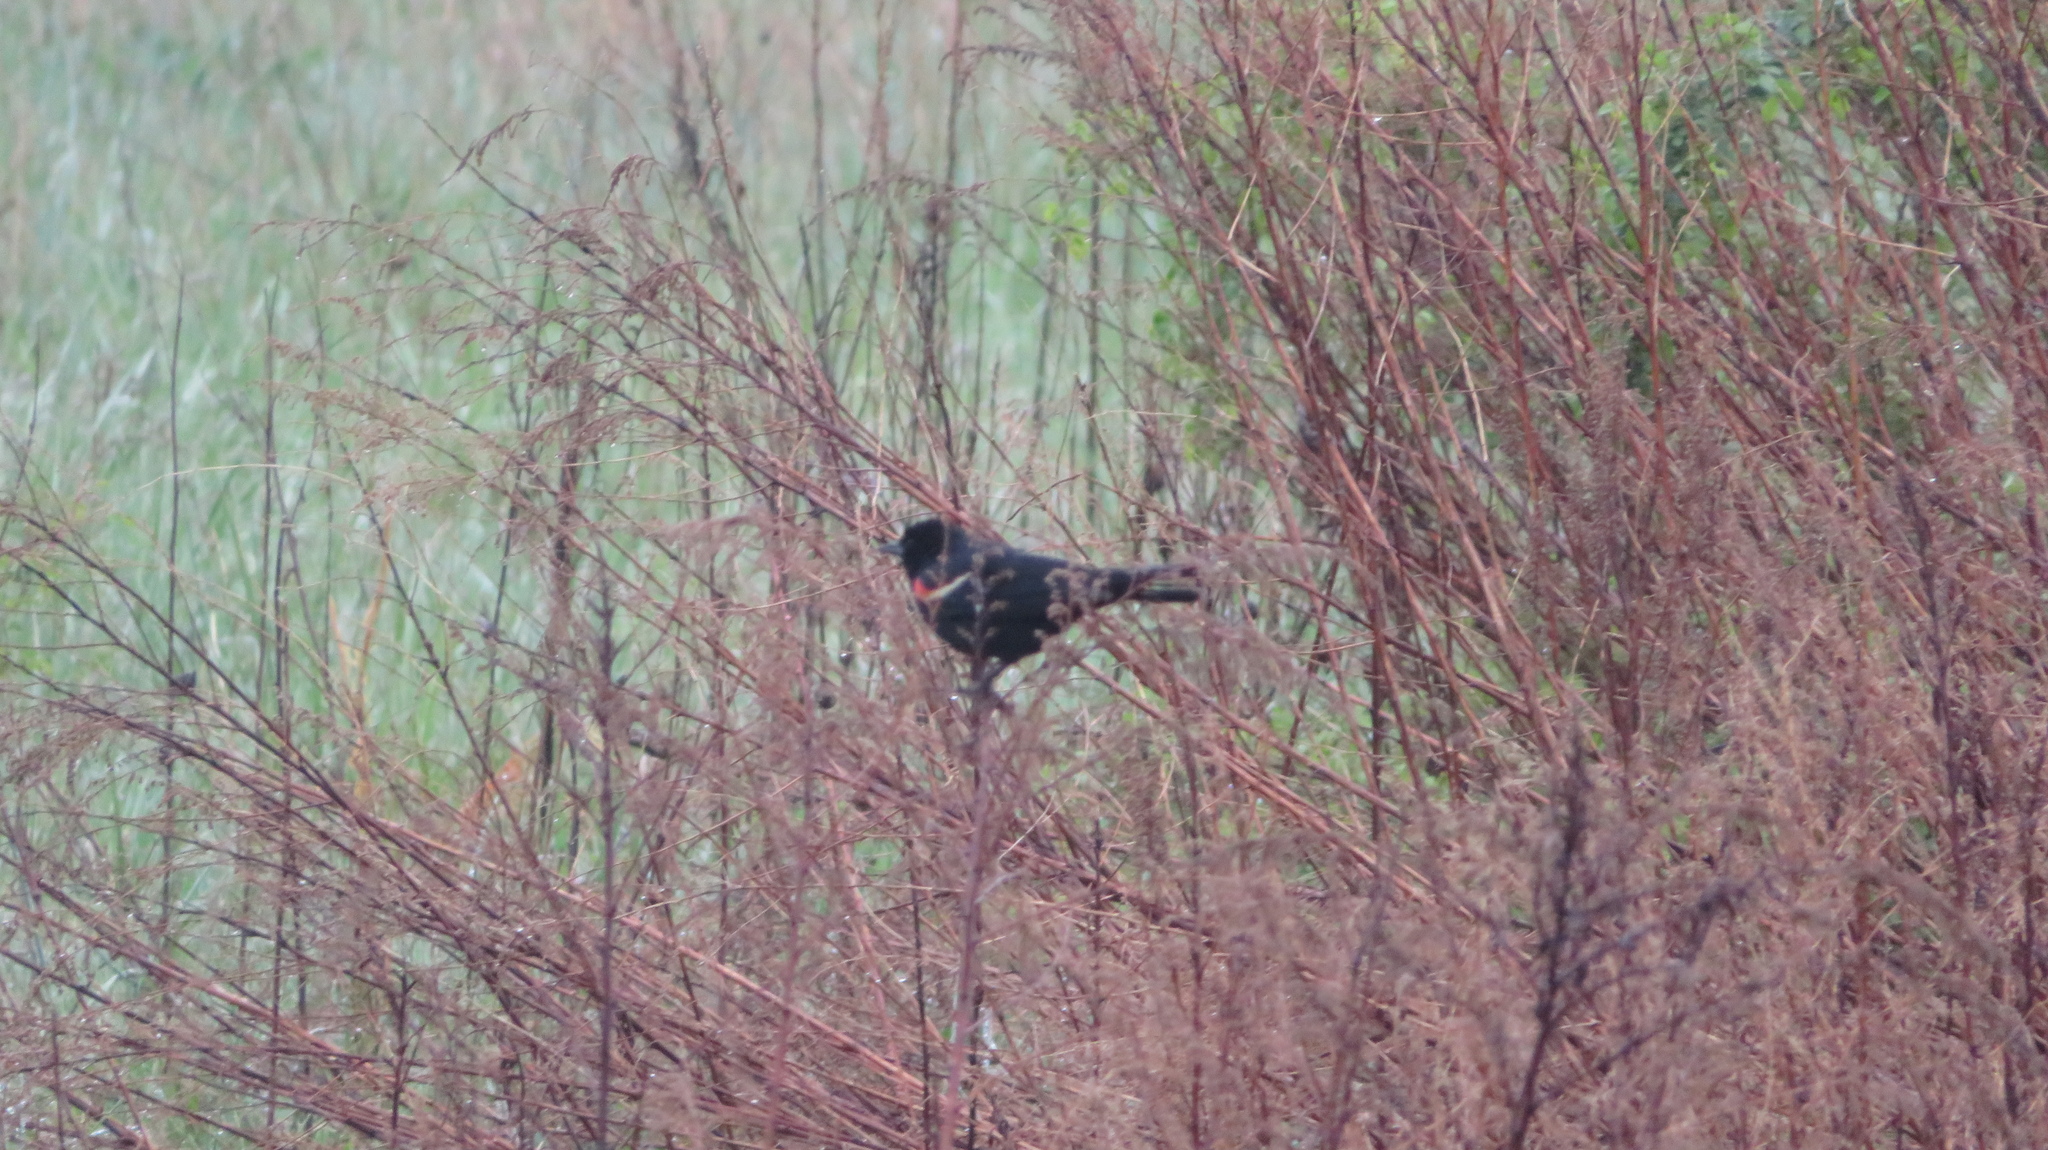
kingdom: Animalia
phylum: Chordata
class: Aves
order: Passeriformes
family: Icteridae
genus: Agelaius
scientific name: Agelaius phoeniceus
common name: Red-winged blackbird
